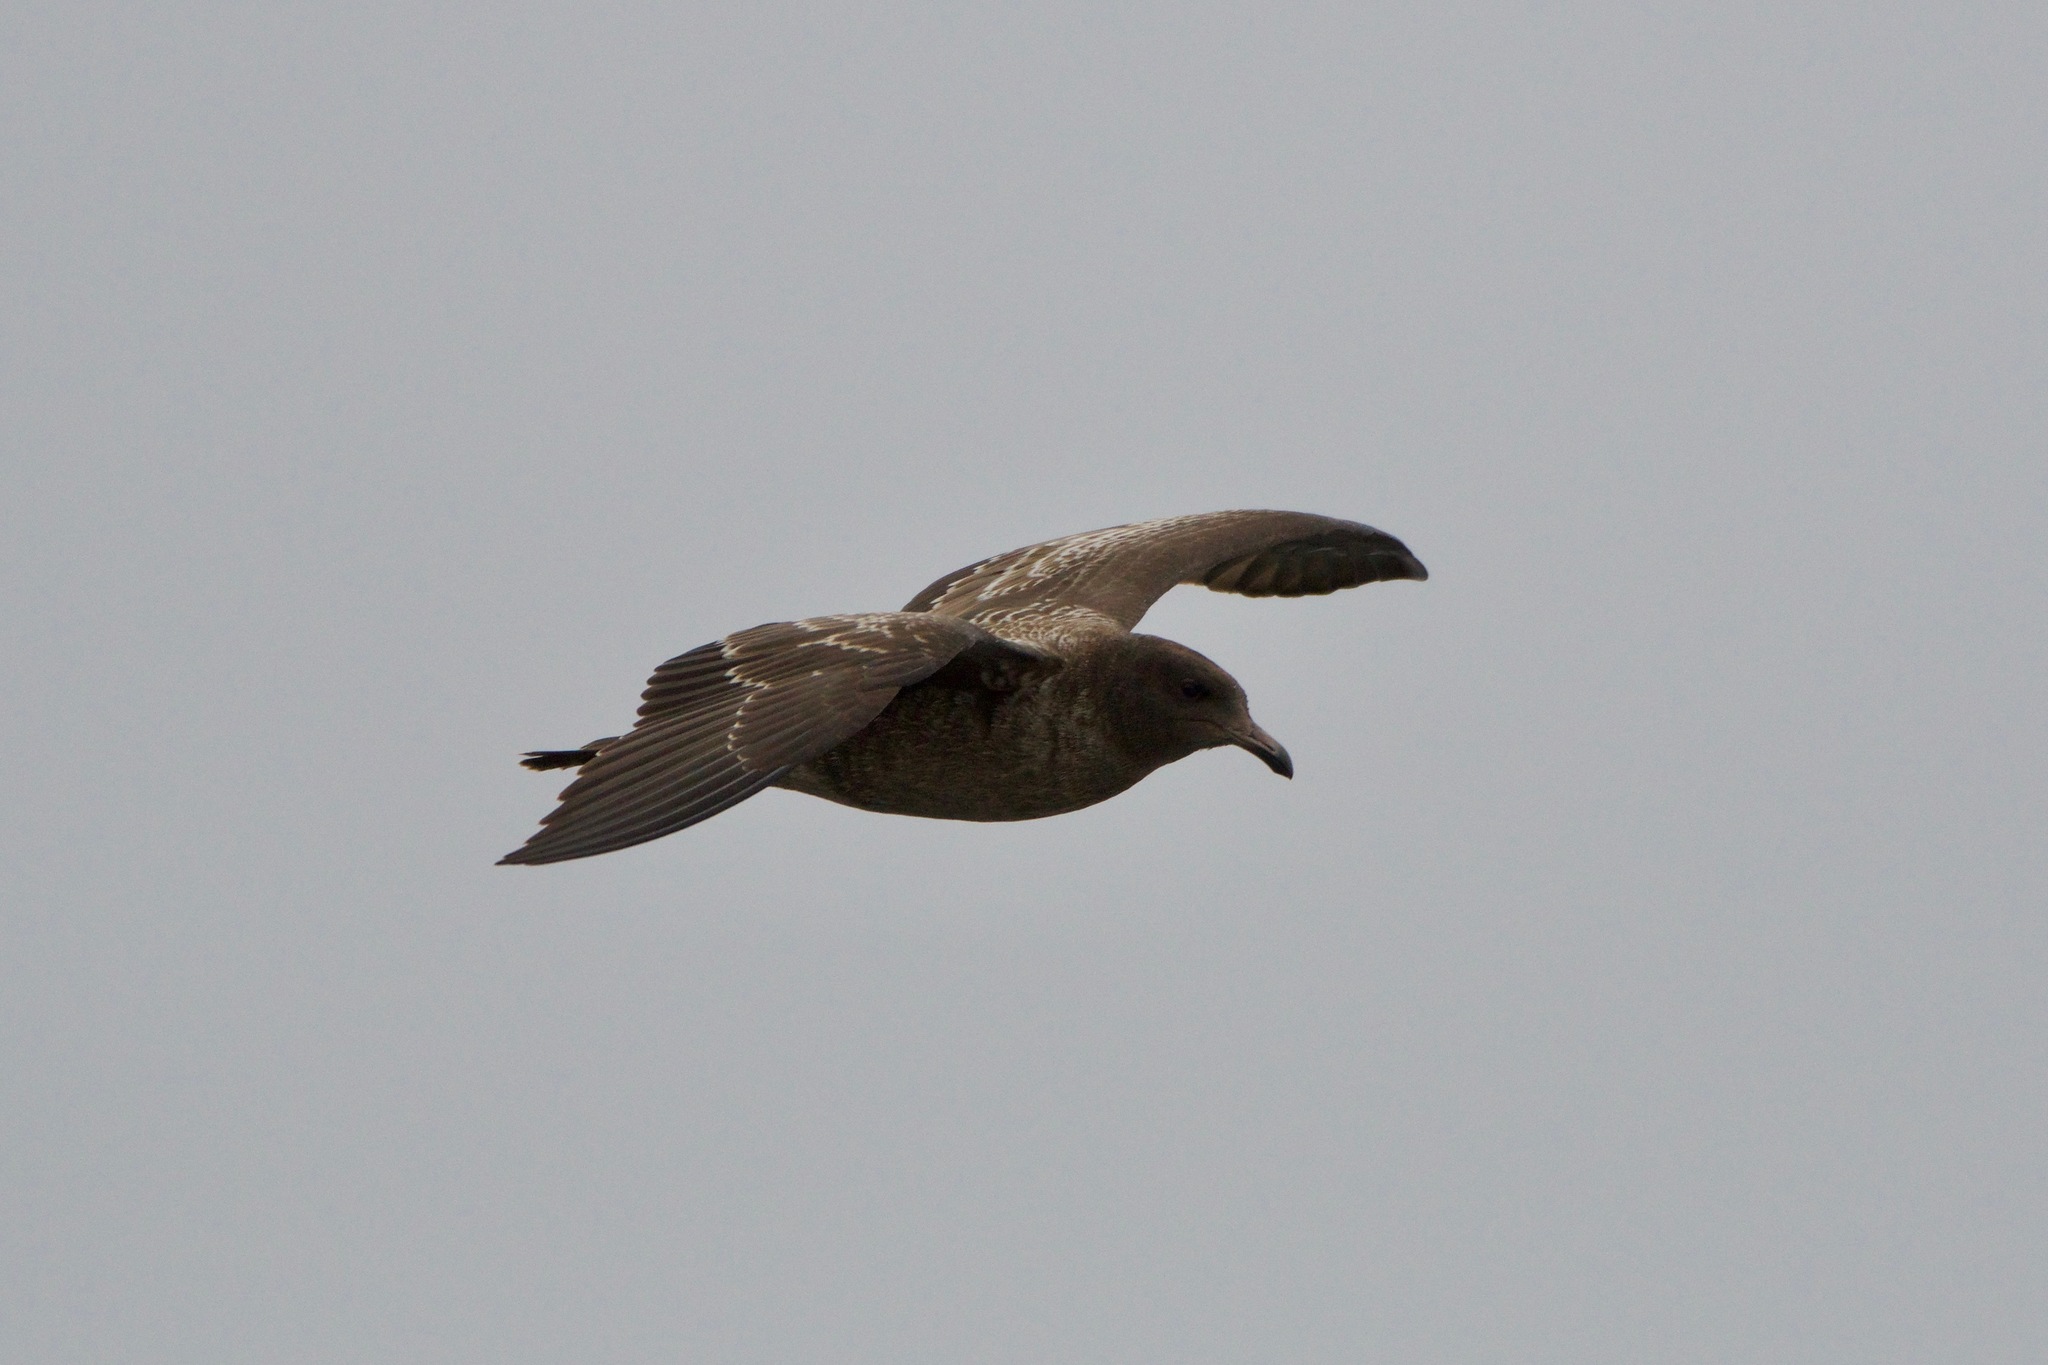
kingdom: Animalia
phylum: Chordata
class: Aves
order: Charadriiformes
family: Laridae
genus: Larus
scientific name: Larus heermanni
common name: Heermann's gull
